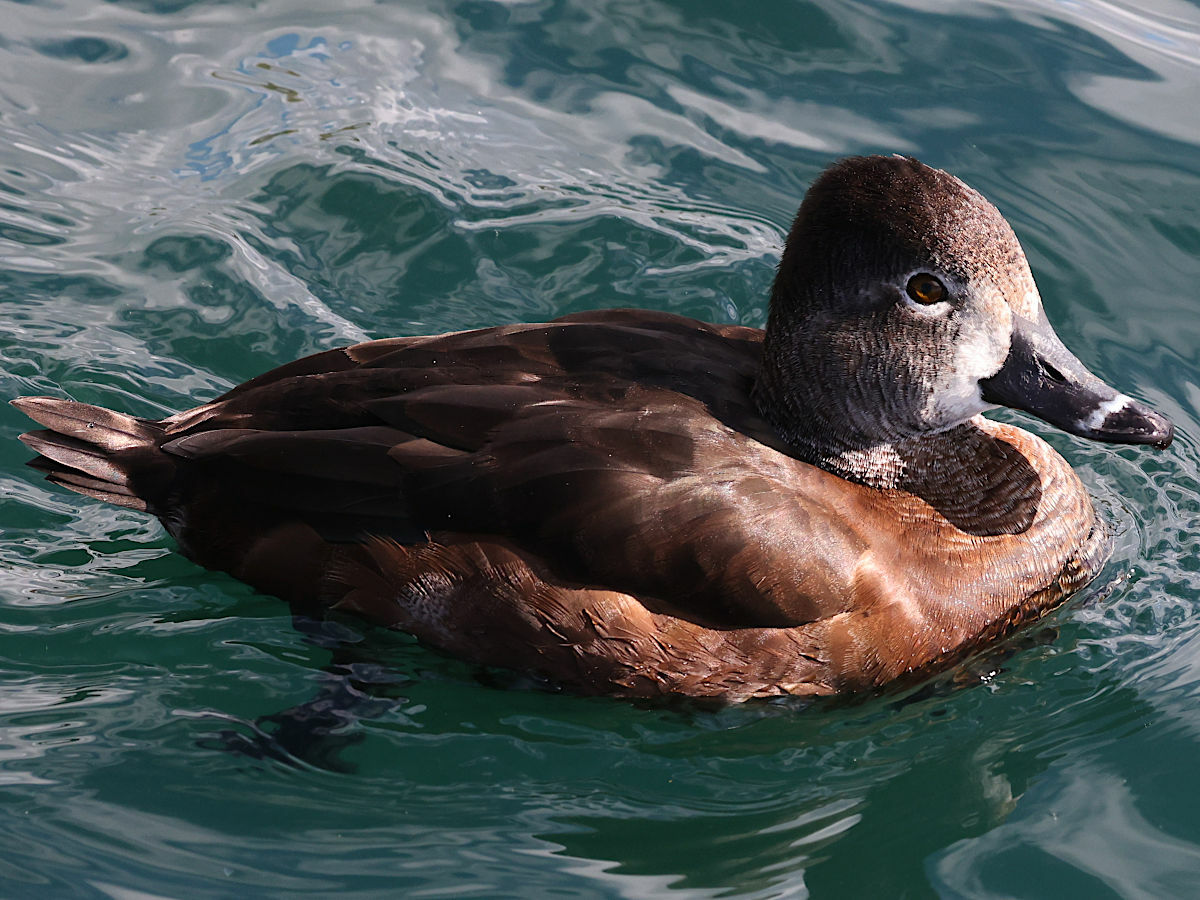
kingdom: Animalia
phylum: Chordata
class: Aves
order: Anseriformes
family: Anatidae
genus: Aythya
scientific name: Aythya collaris
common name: Ring-necked duck
